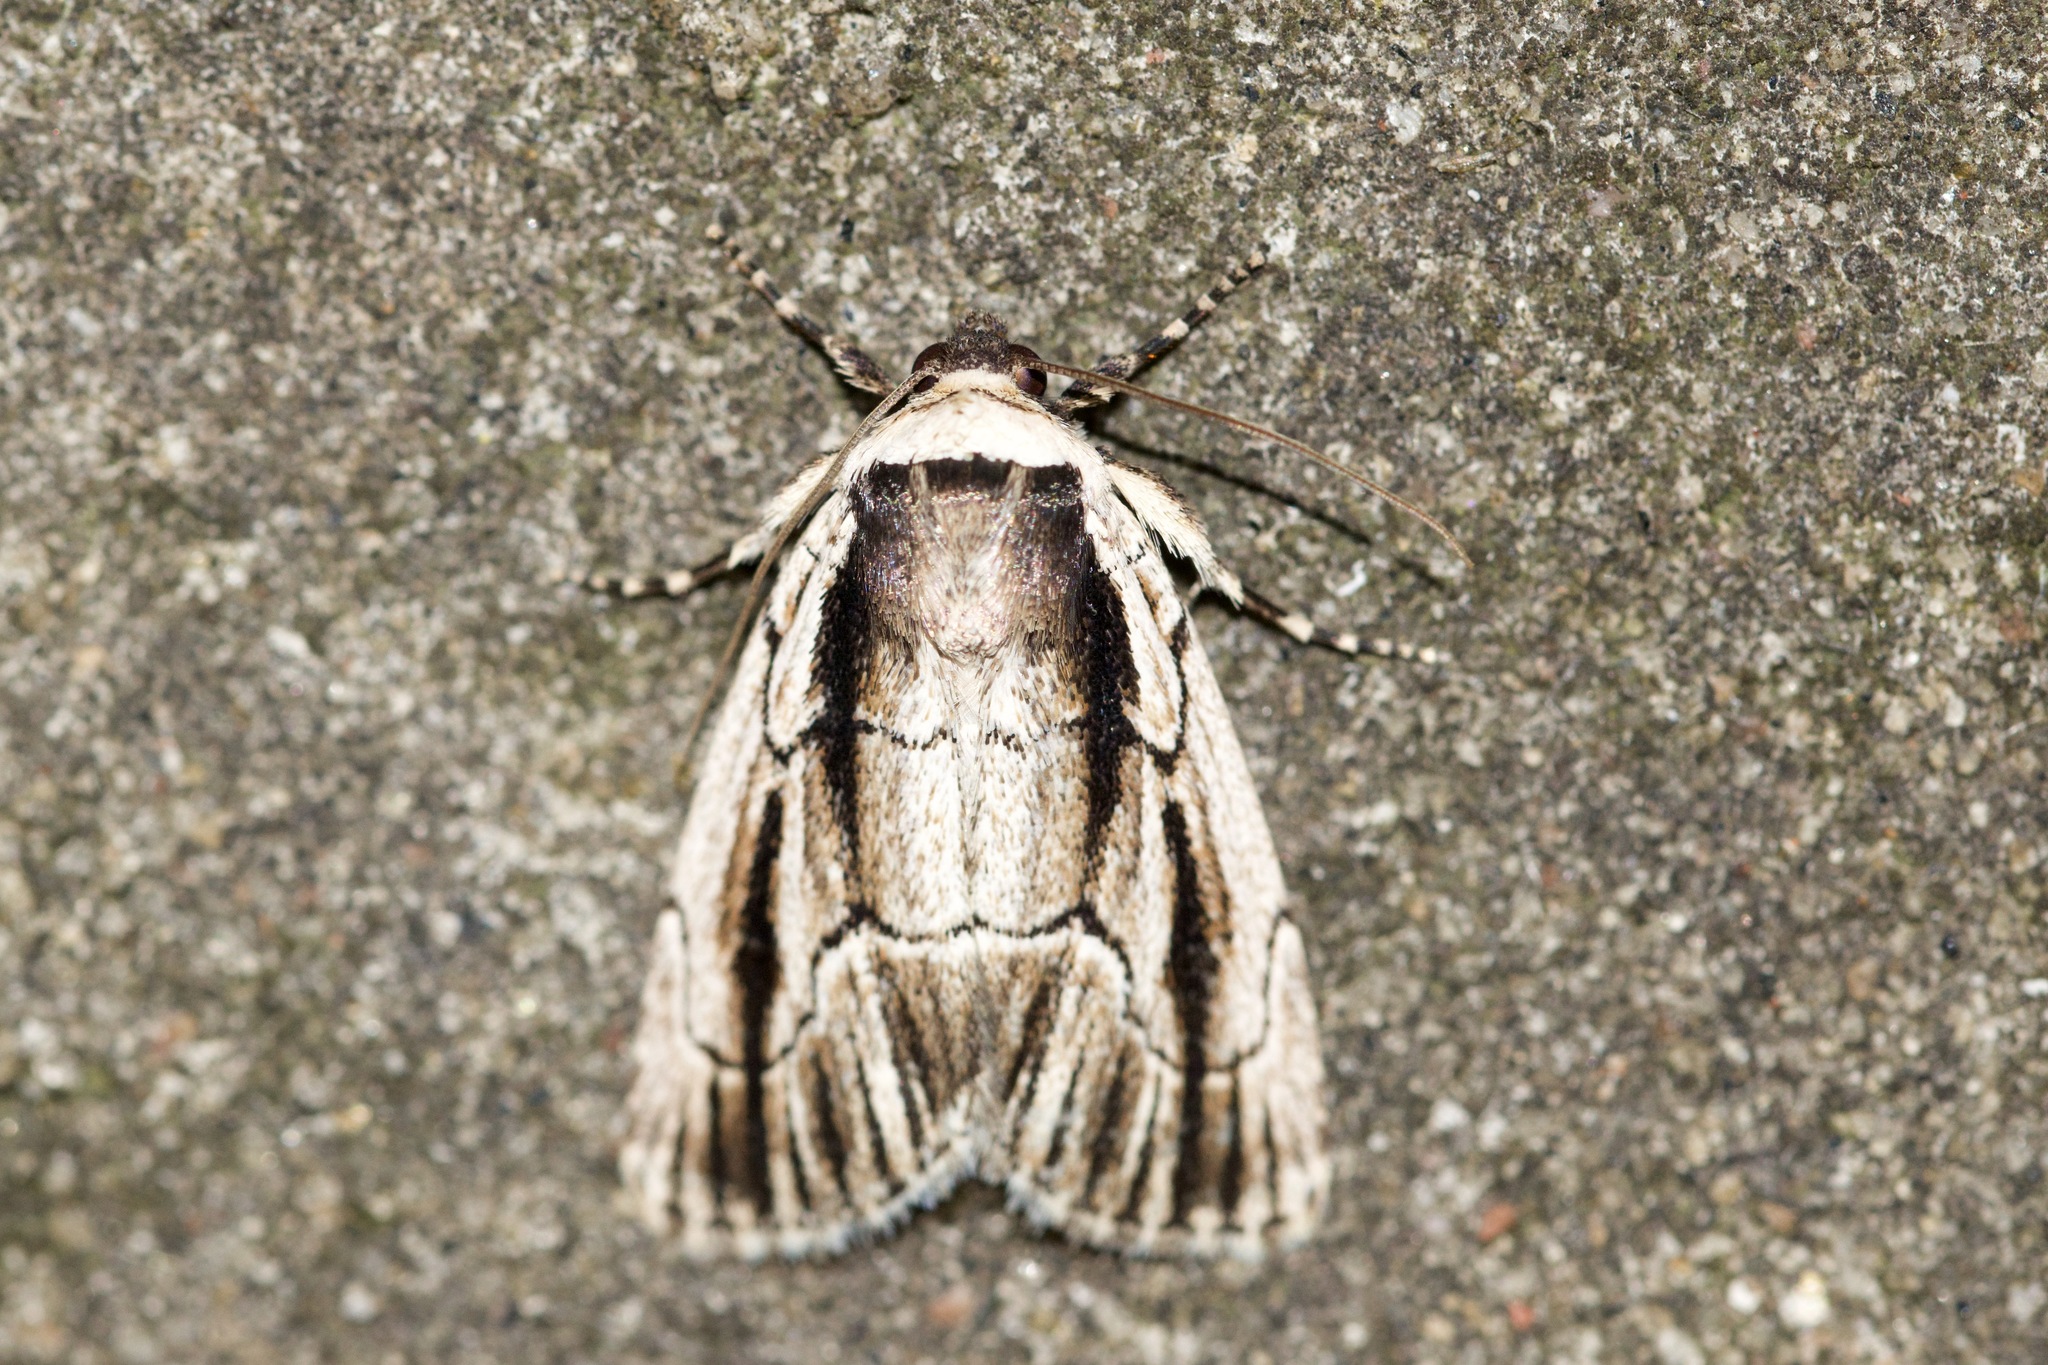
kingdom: Animalia
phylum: Arthropoda
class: Insecta
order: Lepidoptera
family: Noctuidae
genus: Sympistis
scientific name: Sympistis badistriga
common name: Brown-lined sallow moth
